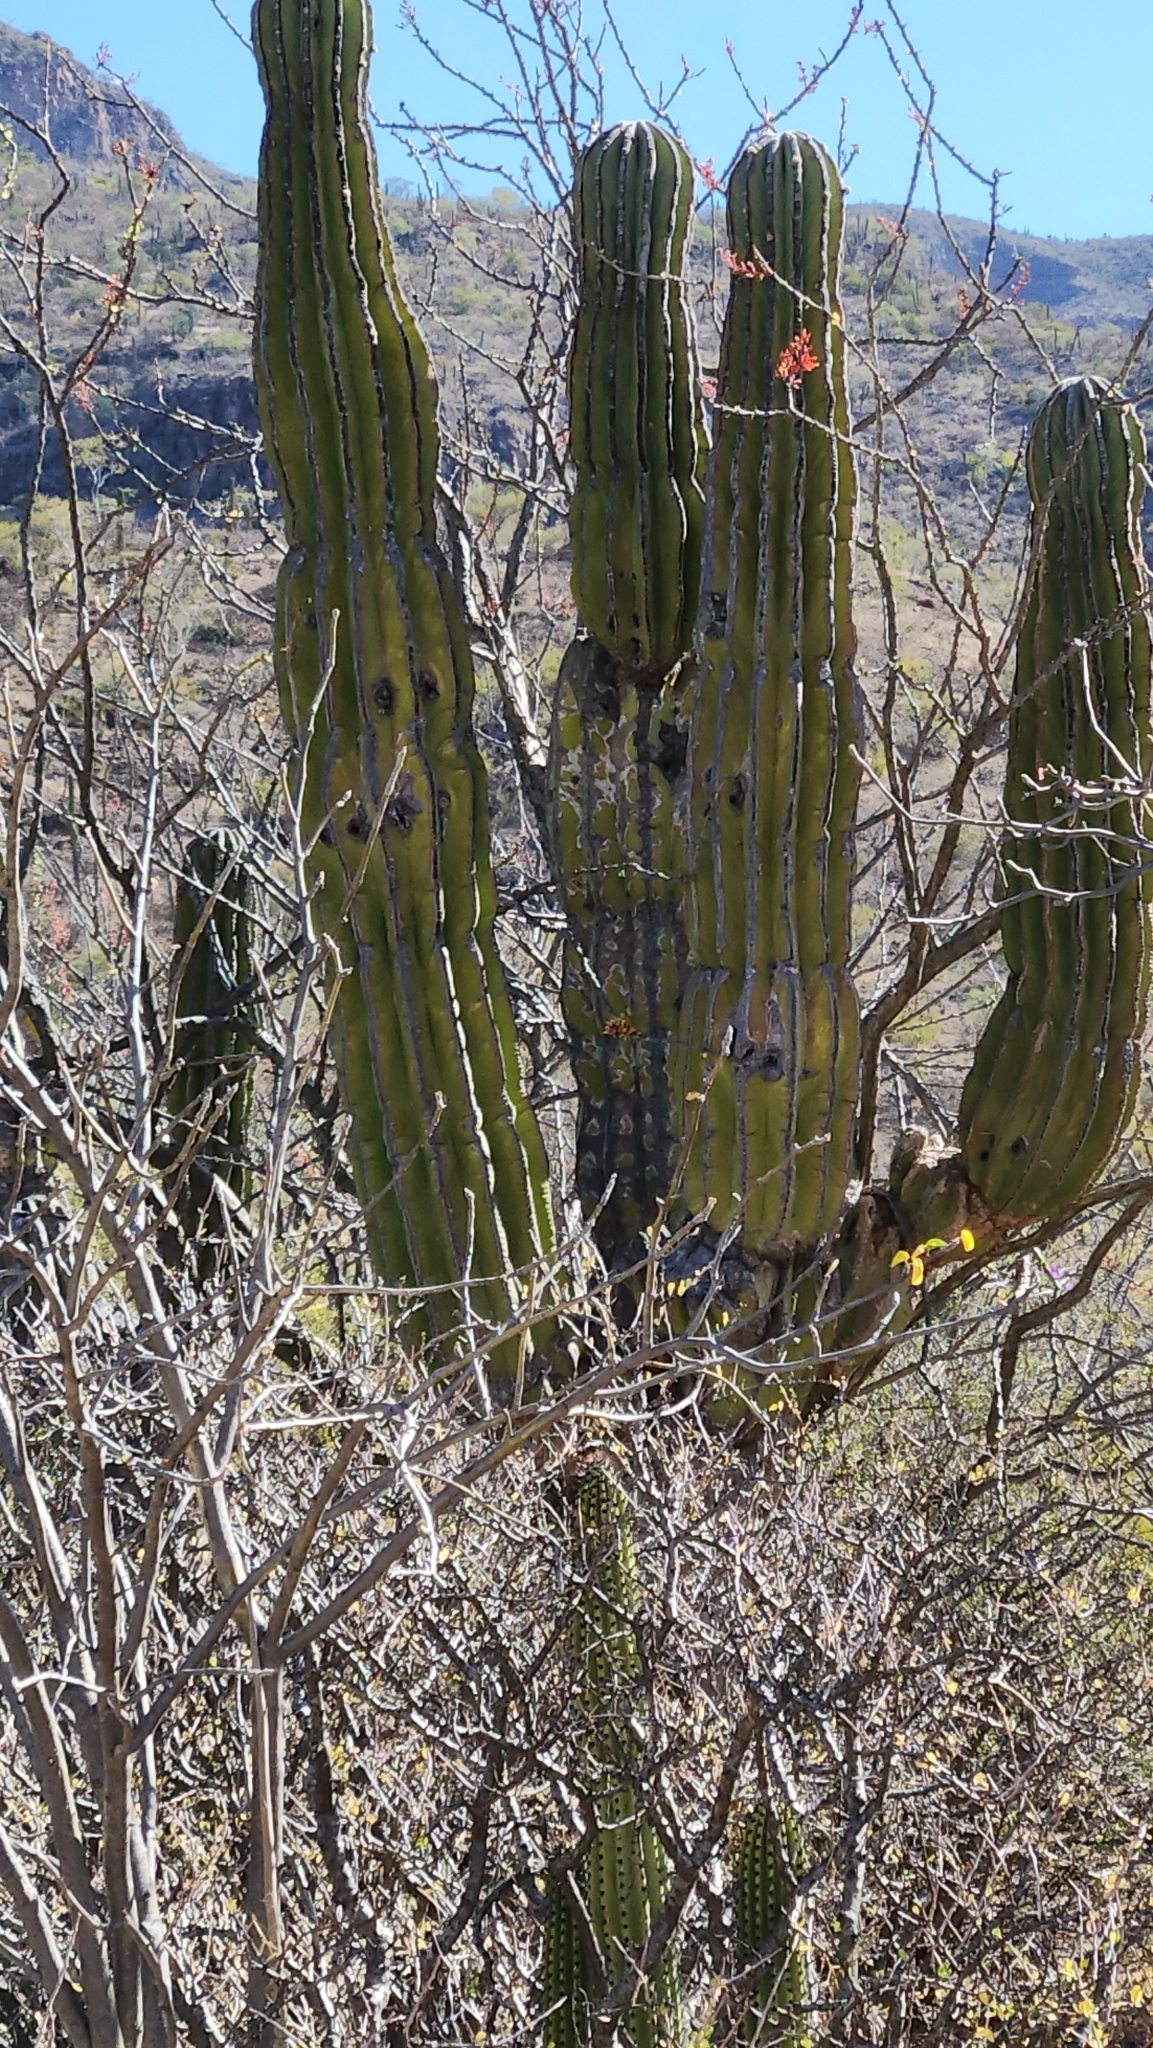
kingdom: Plantae
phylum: Tracheophyta
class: Magnoliopsida
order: Caryophyllales
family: Cactaceae
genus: Pachycereus
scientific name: Pachycereus pringlei
